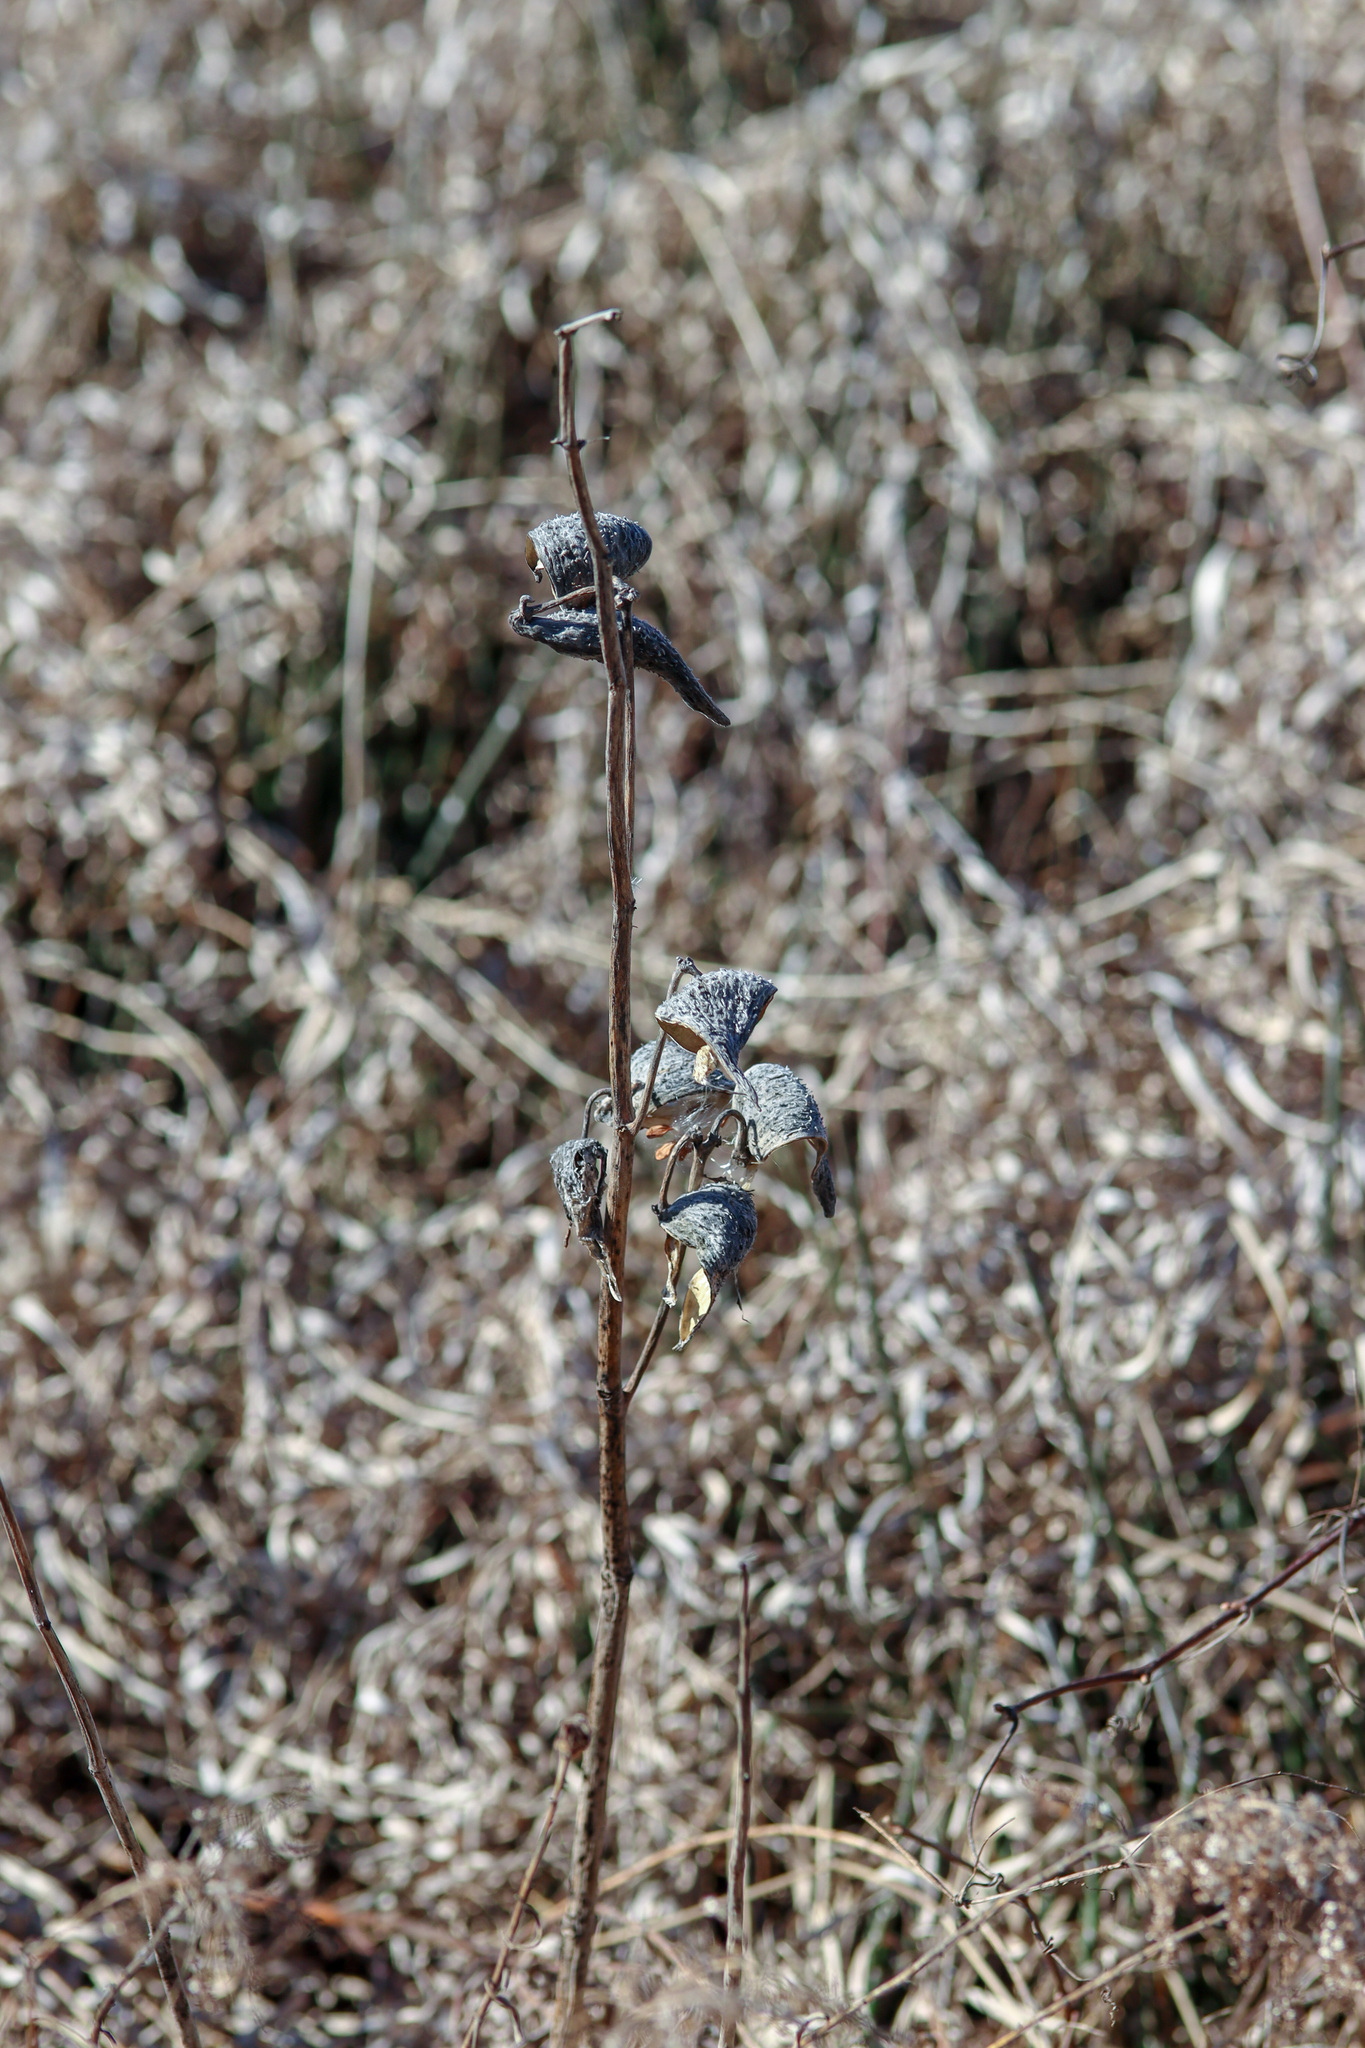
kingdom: Plantae
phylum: Tracheophyta
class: Magnoliopsida
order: Gentianales
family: Apocynaceae
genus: Asclepias
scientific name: Asclepias syriaca
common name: Common milkweed
